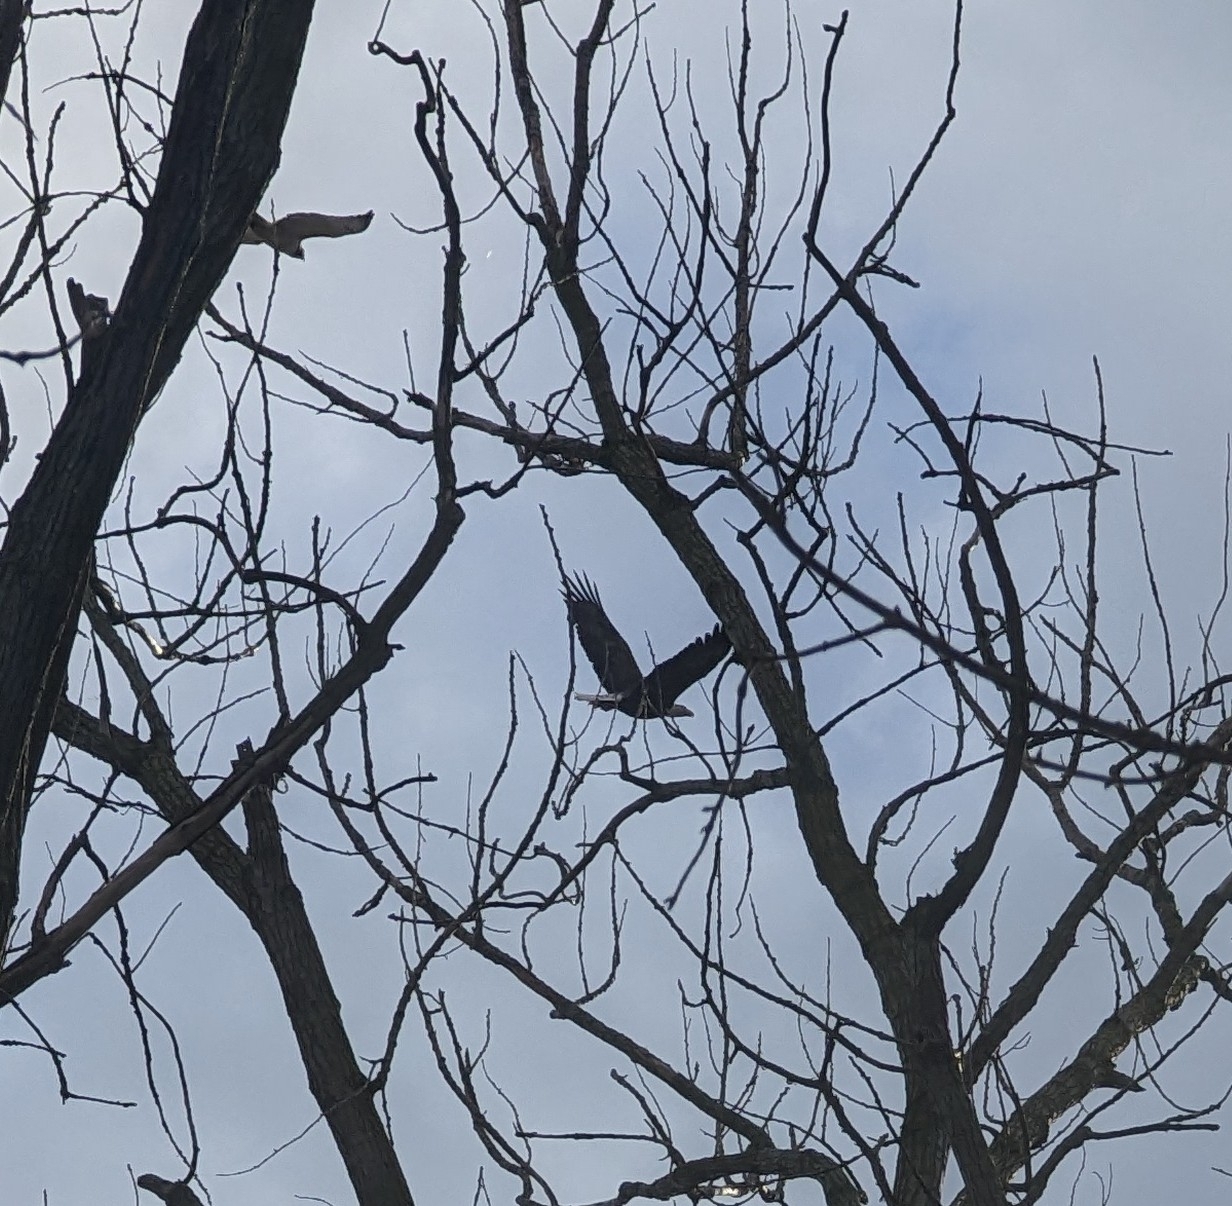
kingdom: Animalia
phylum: Chordata
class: Aves
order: Accipitriformes
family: Accipitridae
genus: Haliaeetus
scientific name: Haliaeetus leucocephalus
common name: Bald eagle
